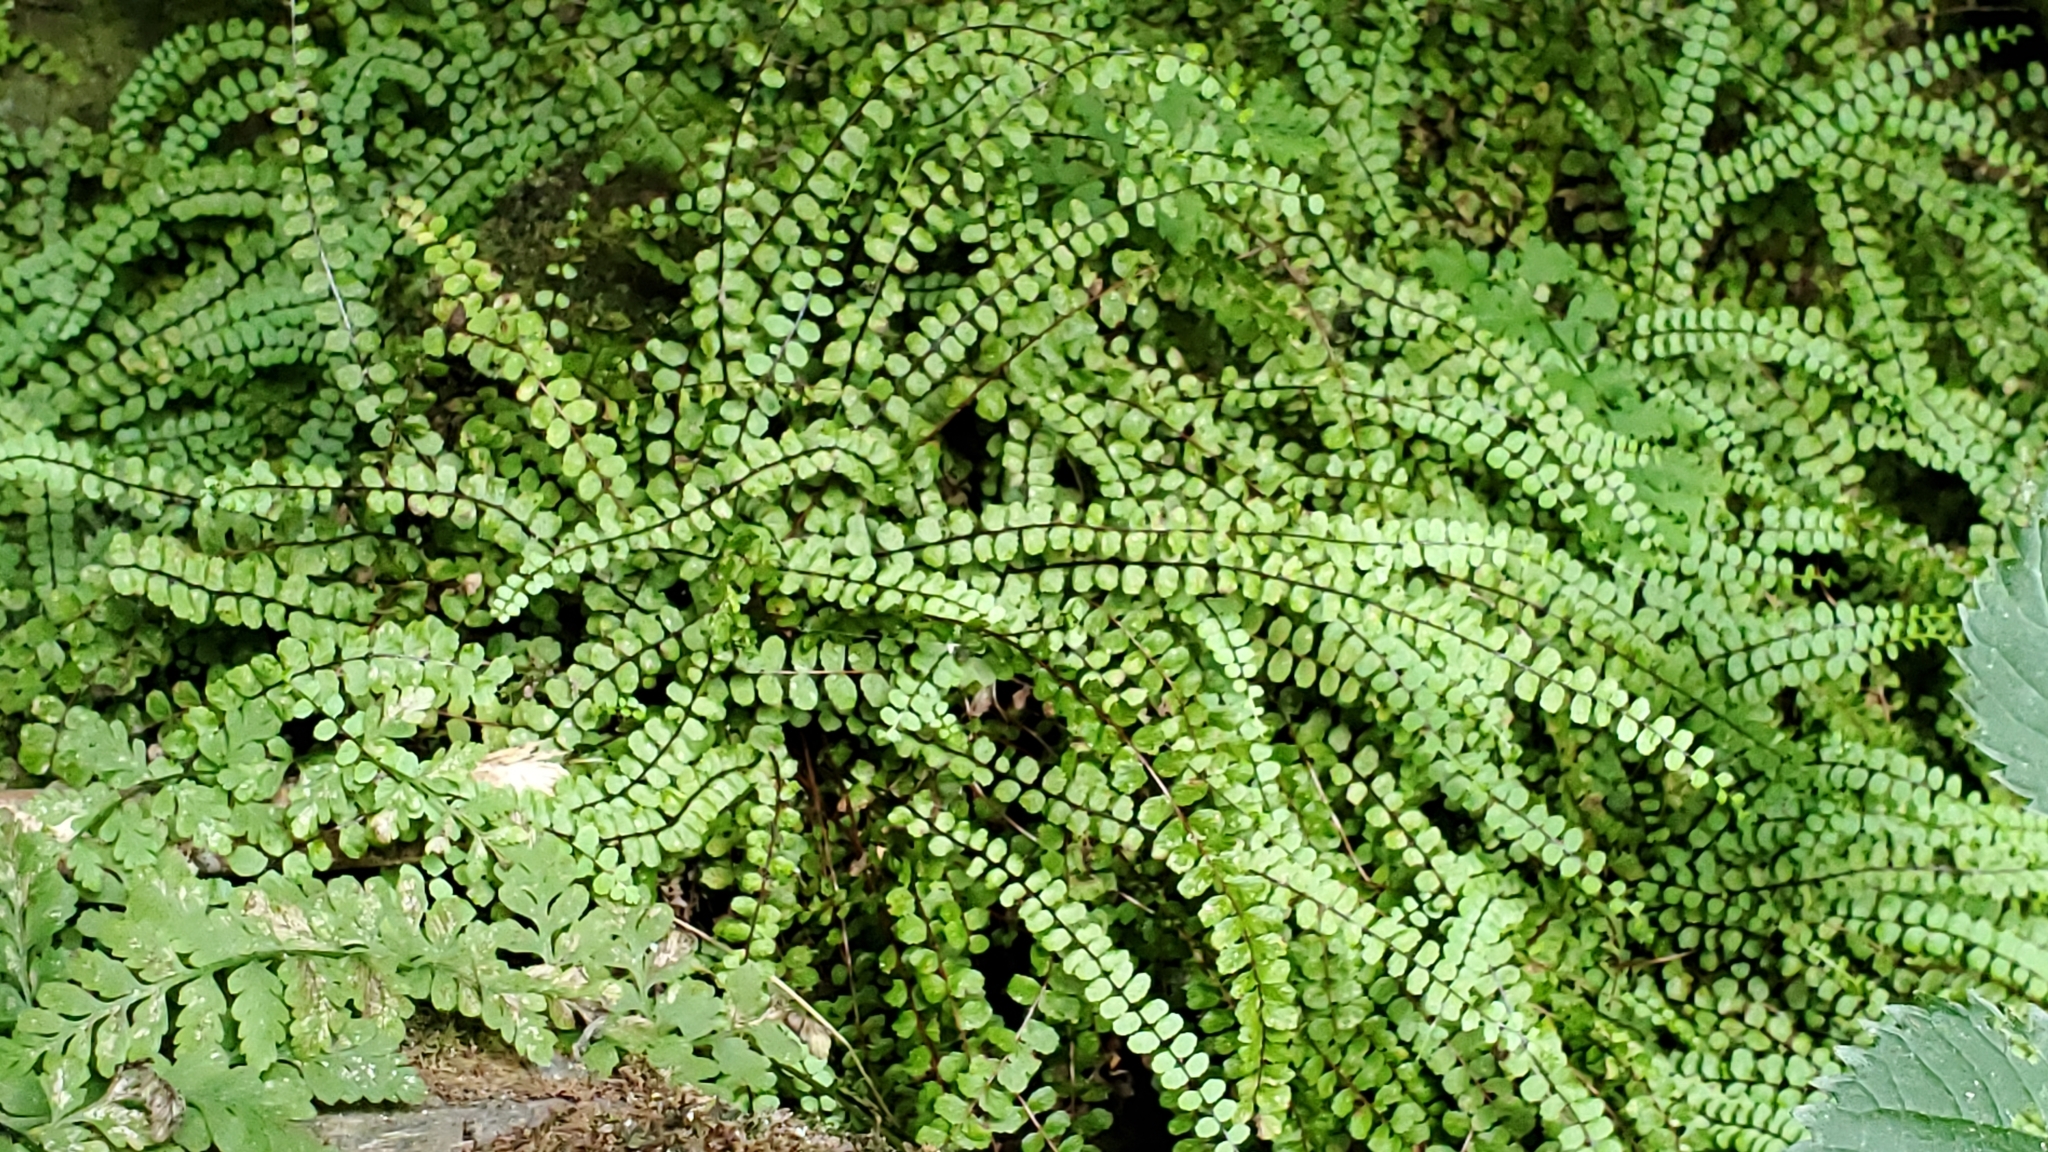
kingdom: Plantae
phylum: Tracheophyta
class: Polypodiopsida
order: Polypodiales
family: Aspleniaceae
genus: Asplenium
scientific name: Asplenium trichomanes
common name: Maidenhair spleenwort
